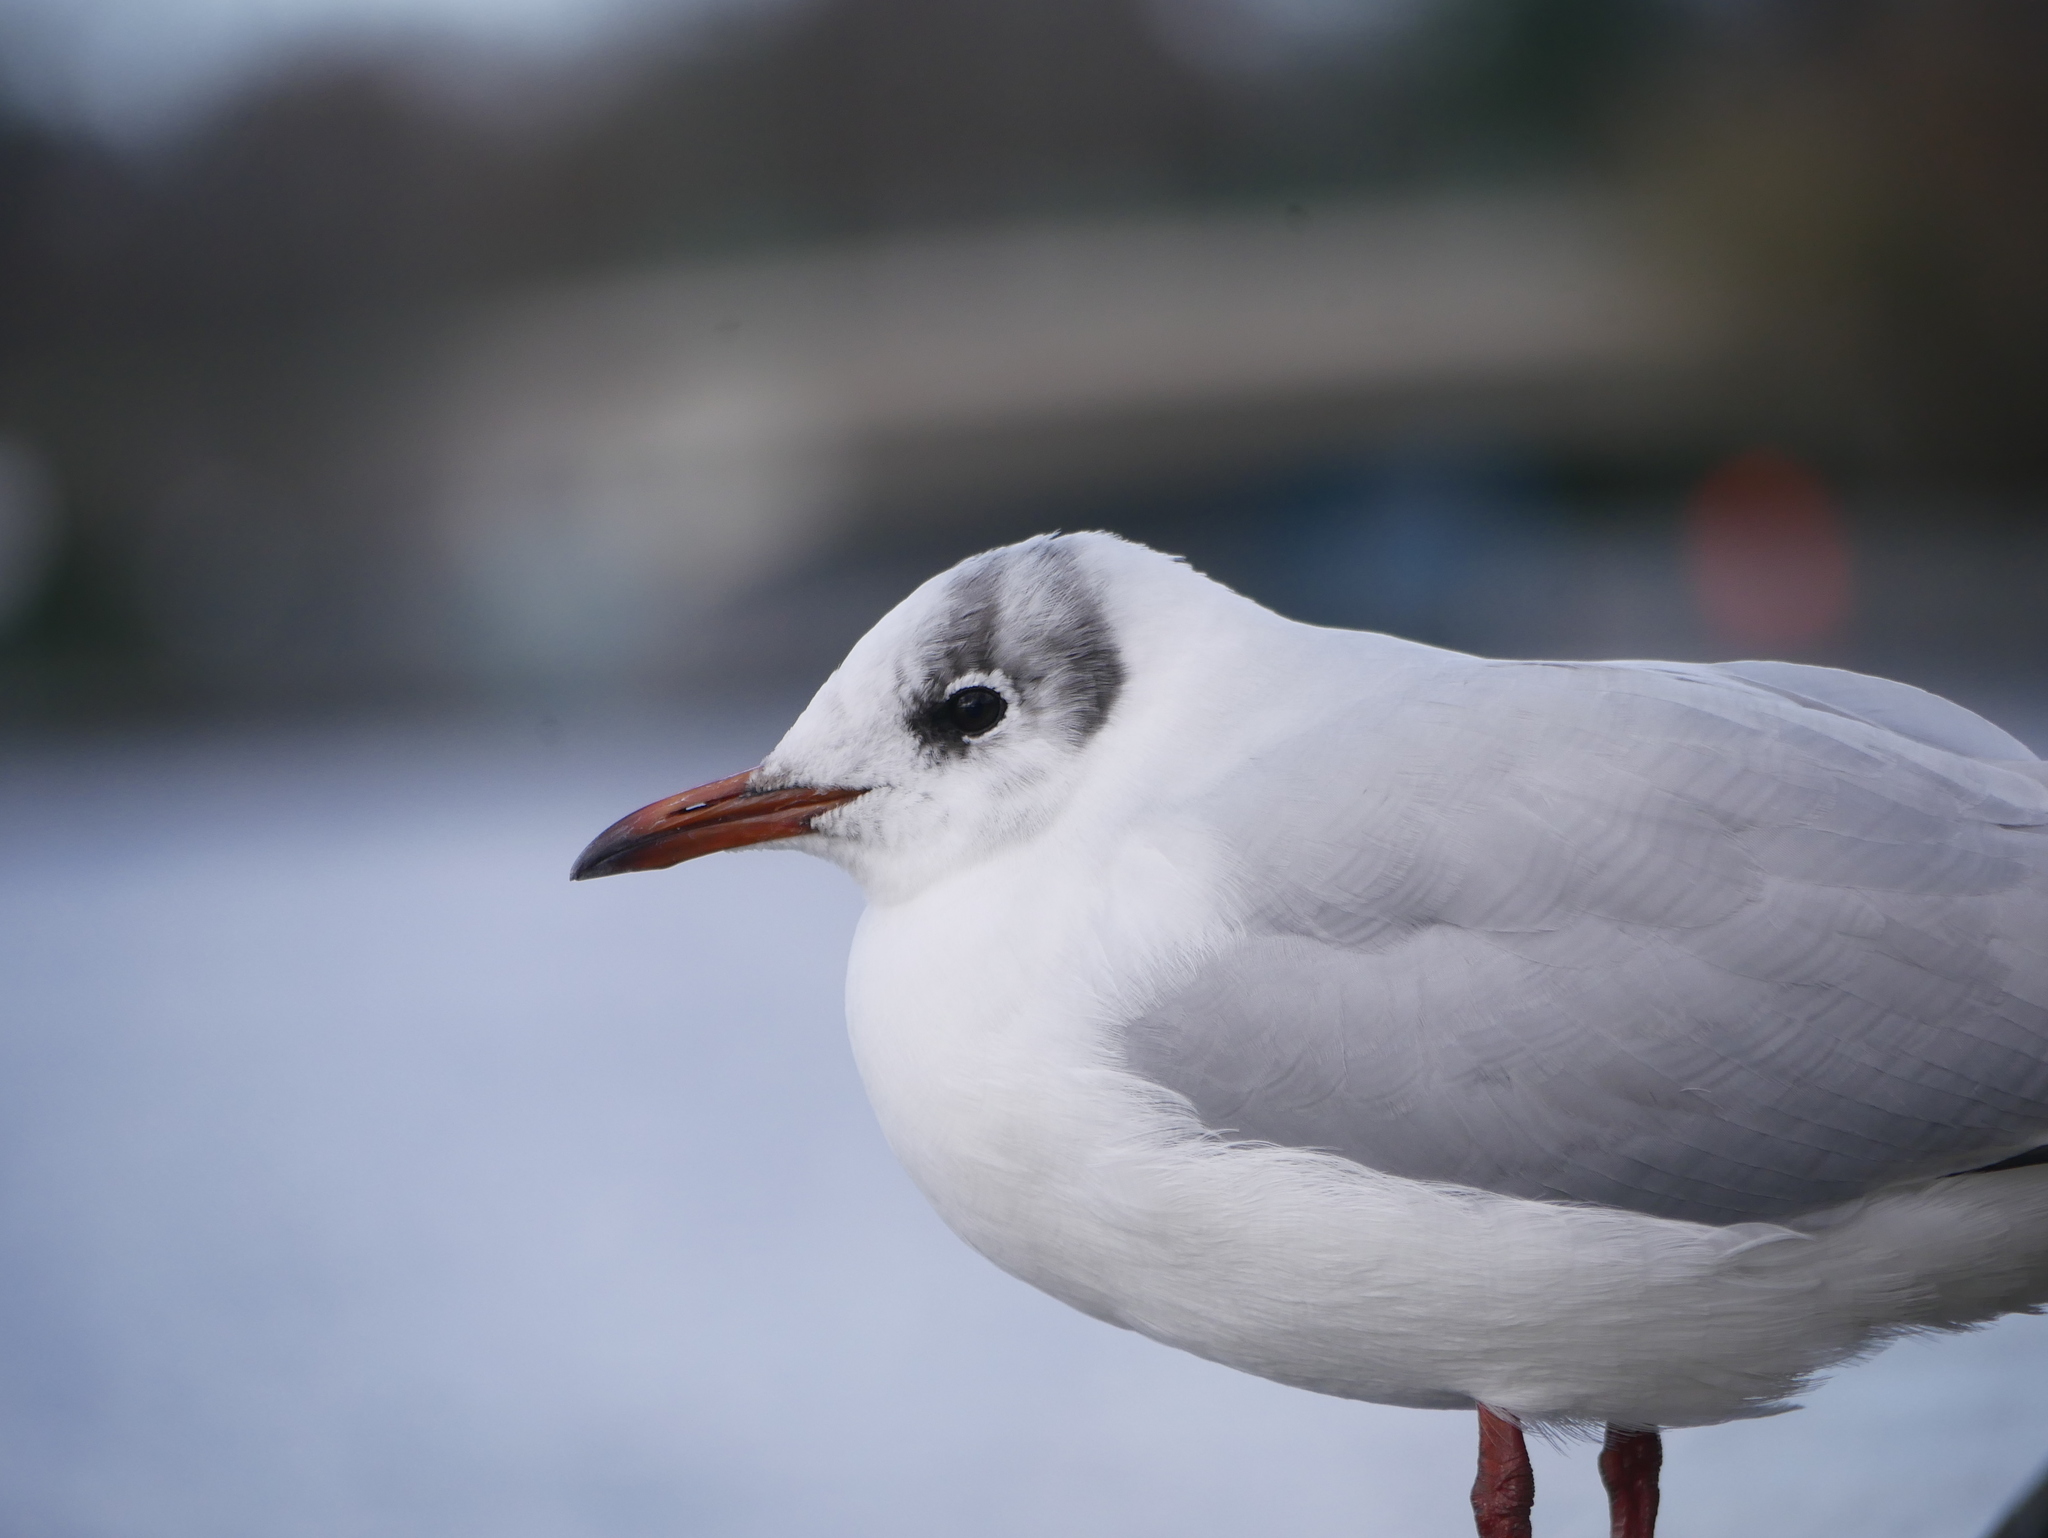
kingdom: Animalia
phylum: Chordata
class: Aves
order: Charadriiformes
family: Laridae
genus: Chroicocephalus
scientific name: Chroicocephalus ridibundus
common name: Black-headed gull
